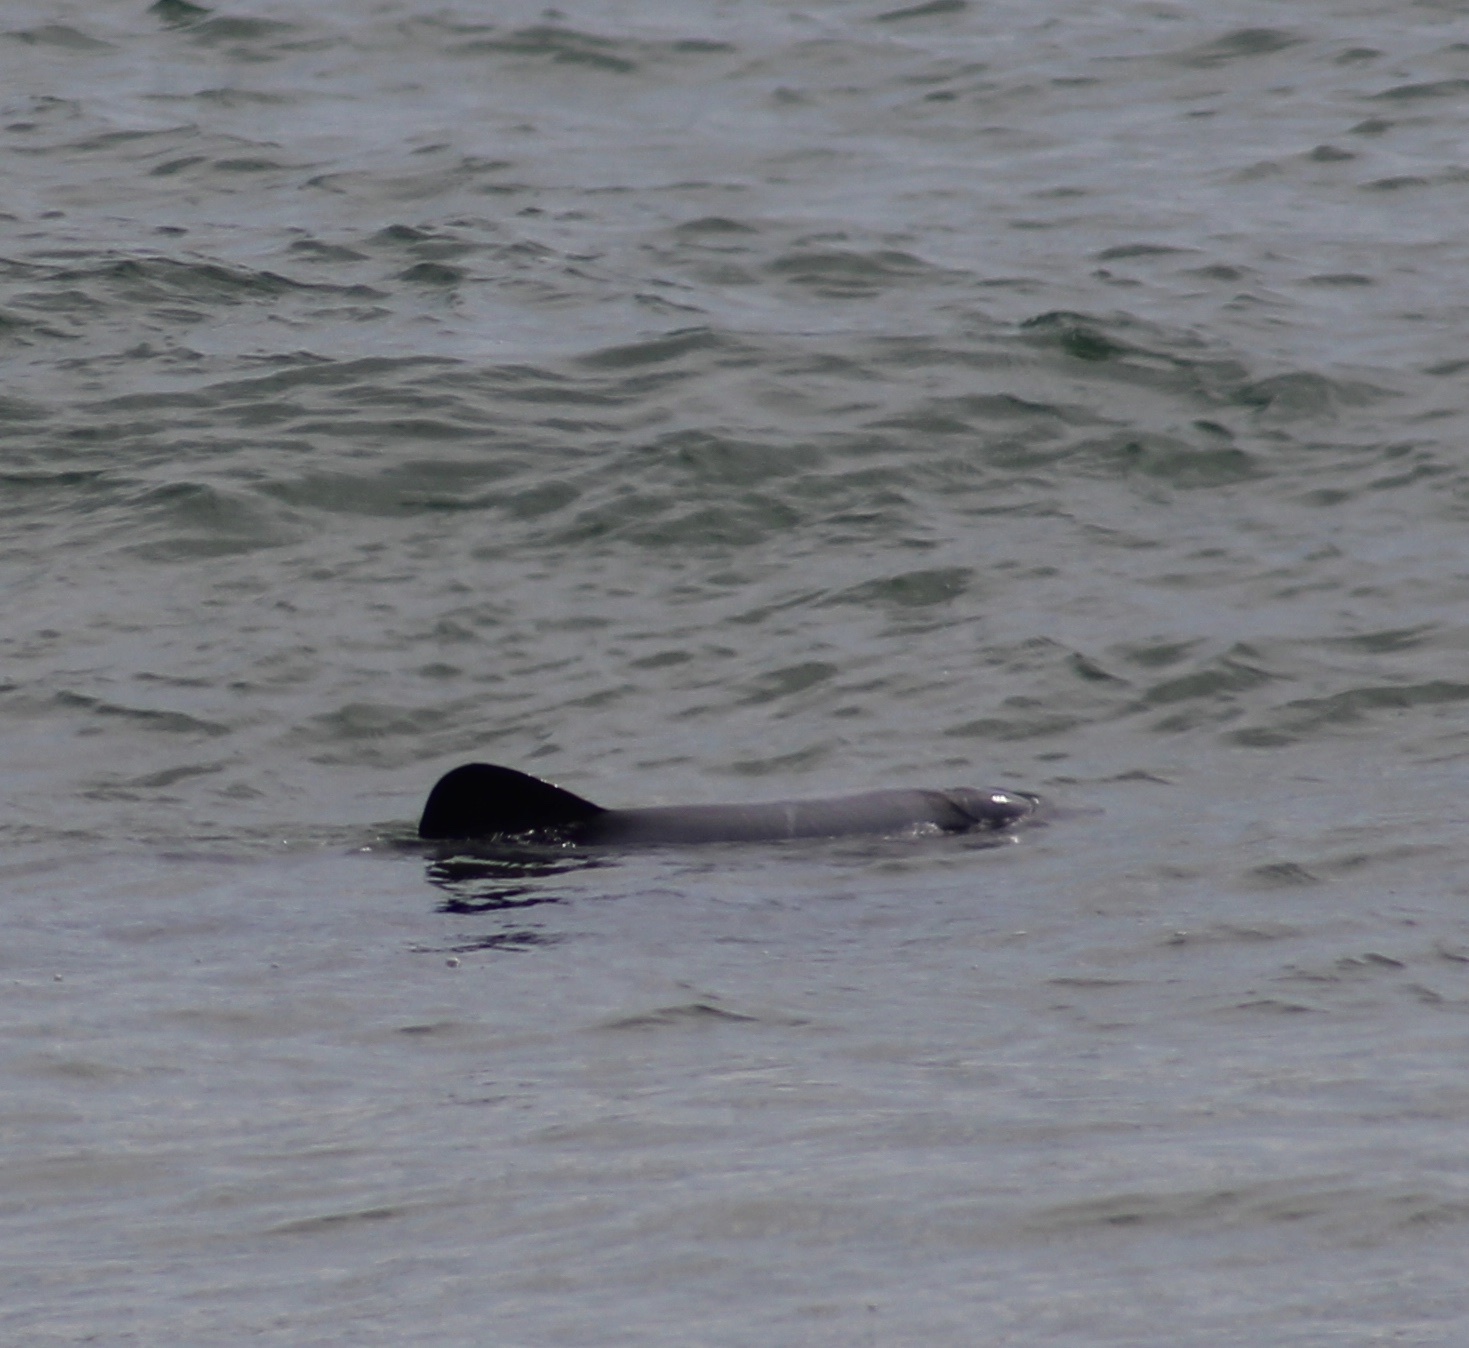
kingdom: Animalia
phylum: Chordata
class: Mammalia
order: Cetacea
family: Delphinidae
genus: Cephalorhynchus
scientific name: Cephalorhynchus hectori
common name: Hector's dolphin
